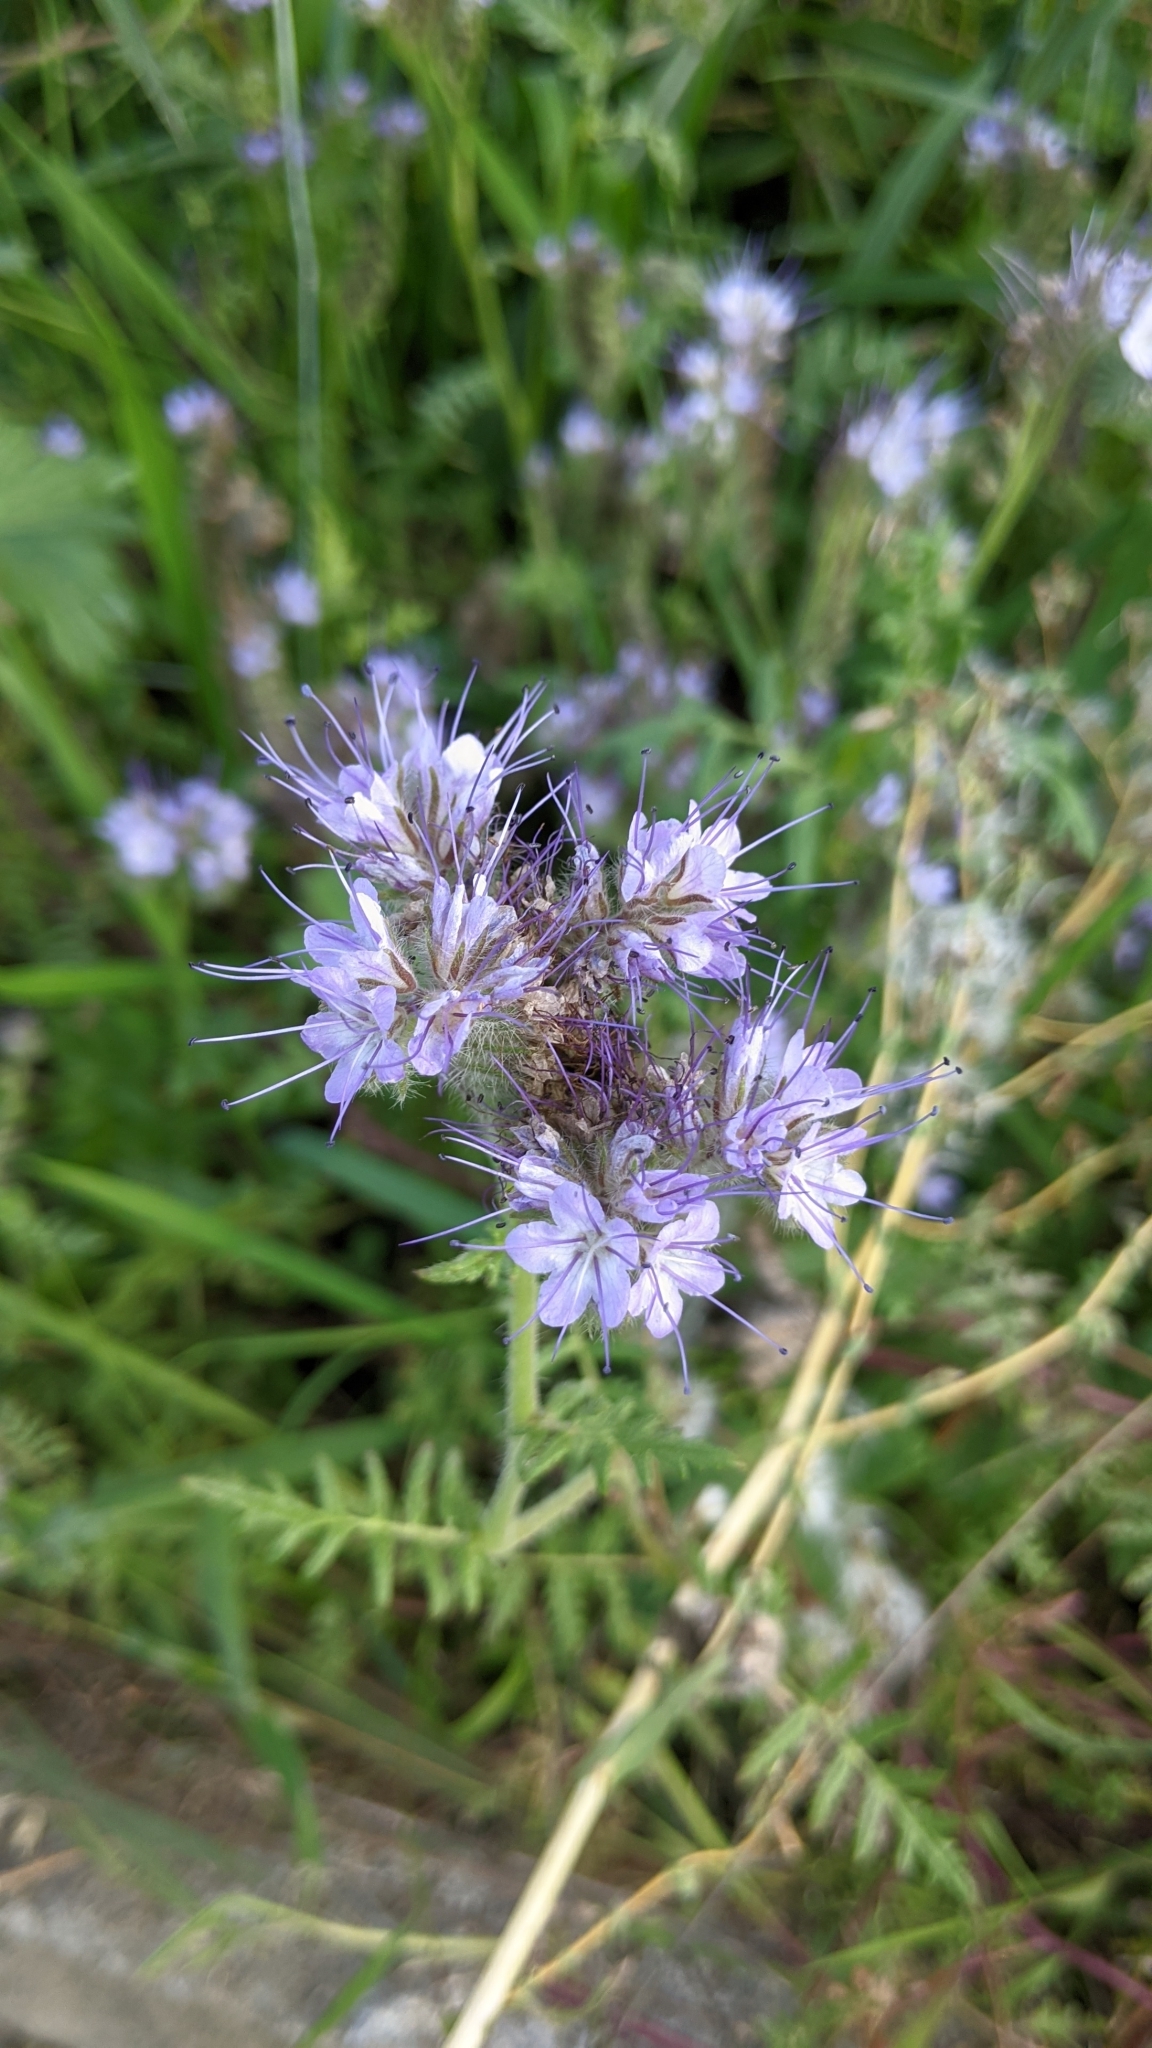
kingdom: Plantae
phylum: Tracheophyta
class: Magnoliopsida
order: Boraginales
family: Hydrophyllaceae
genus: Phacelia
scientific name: Phacelia tanacetifolia
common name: Phacelia
